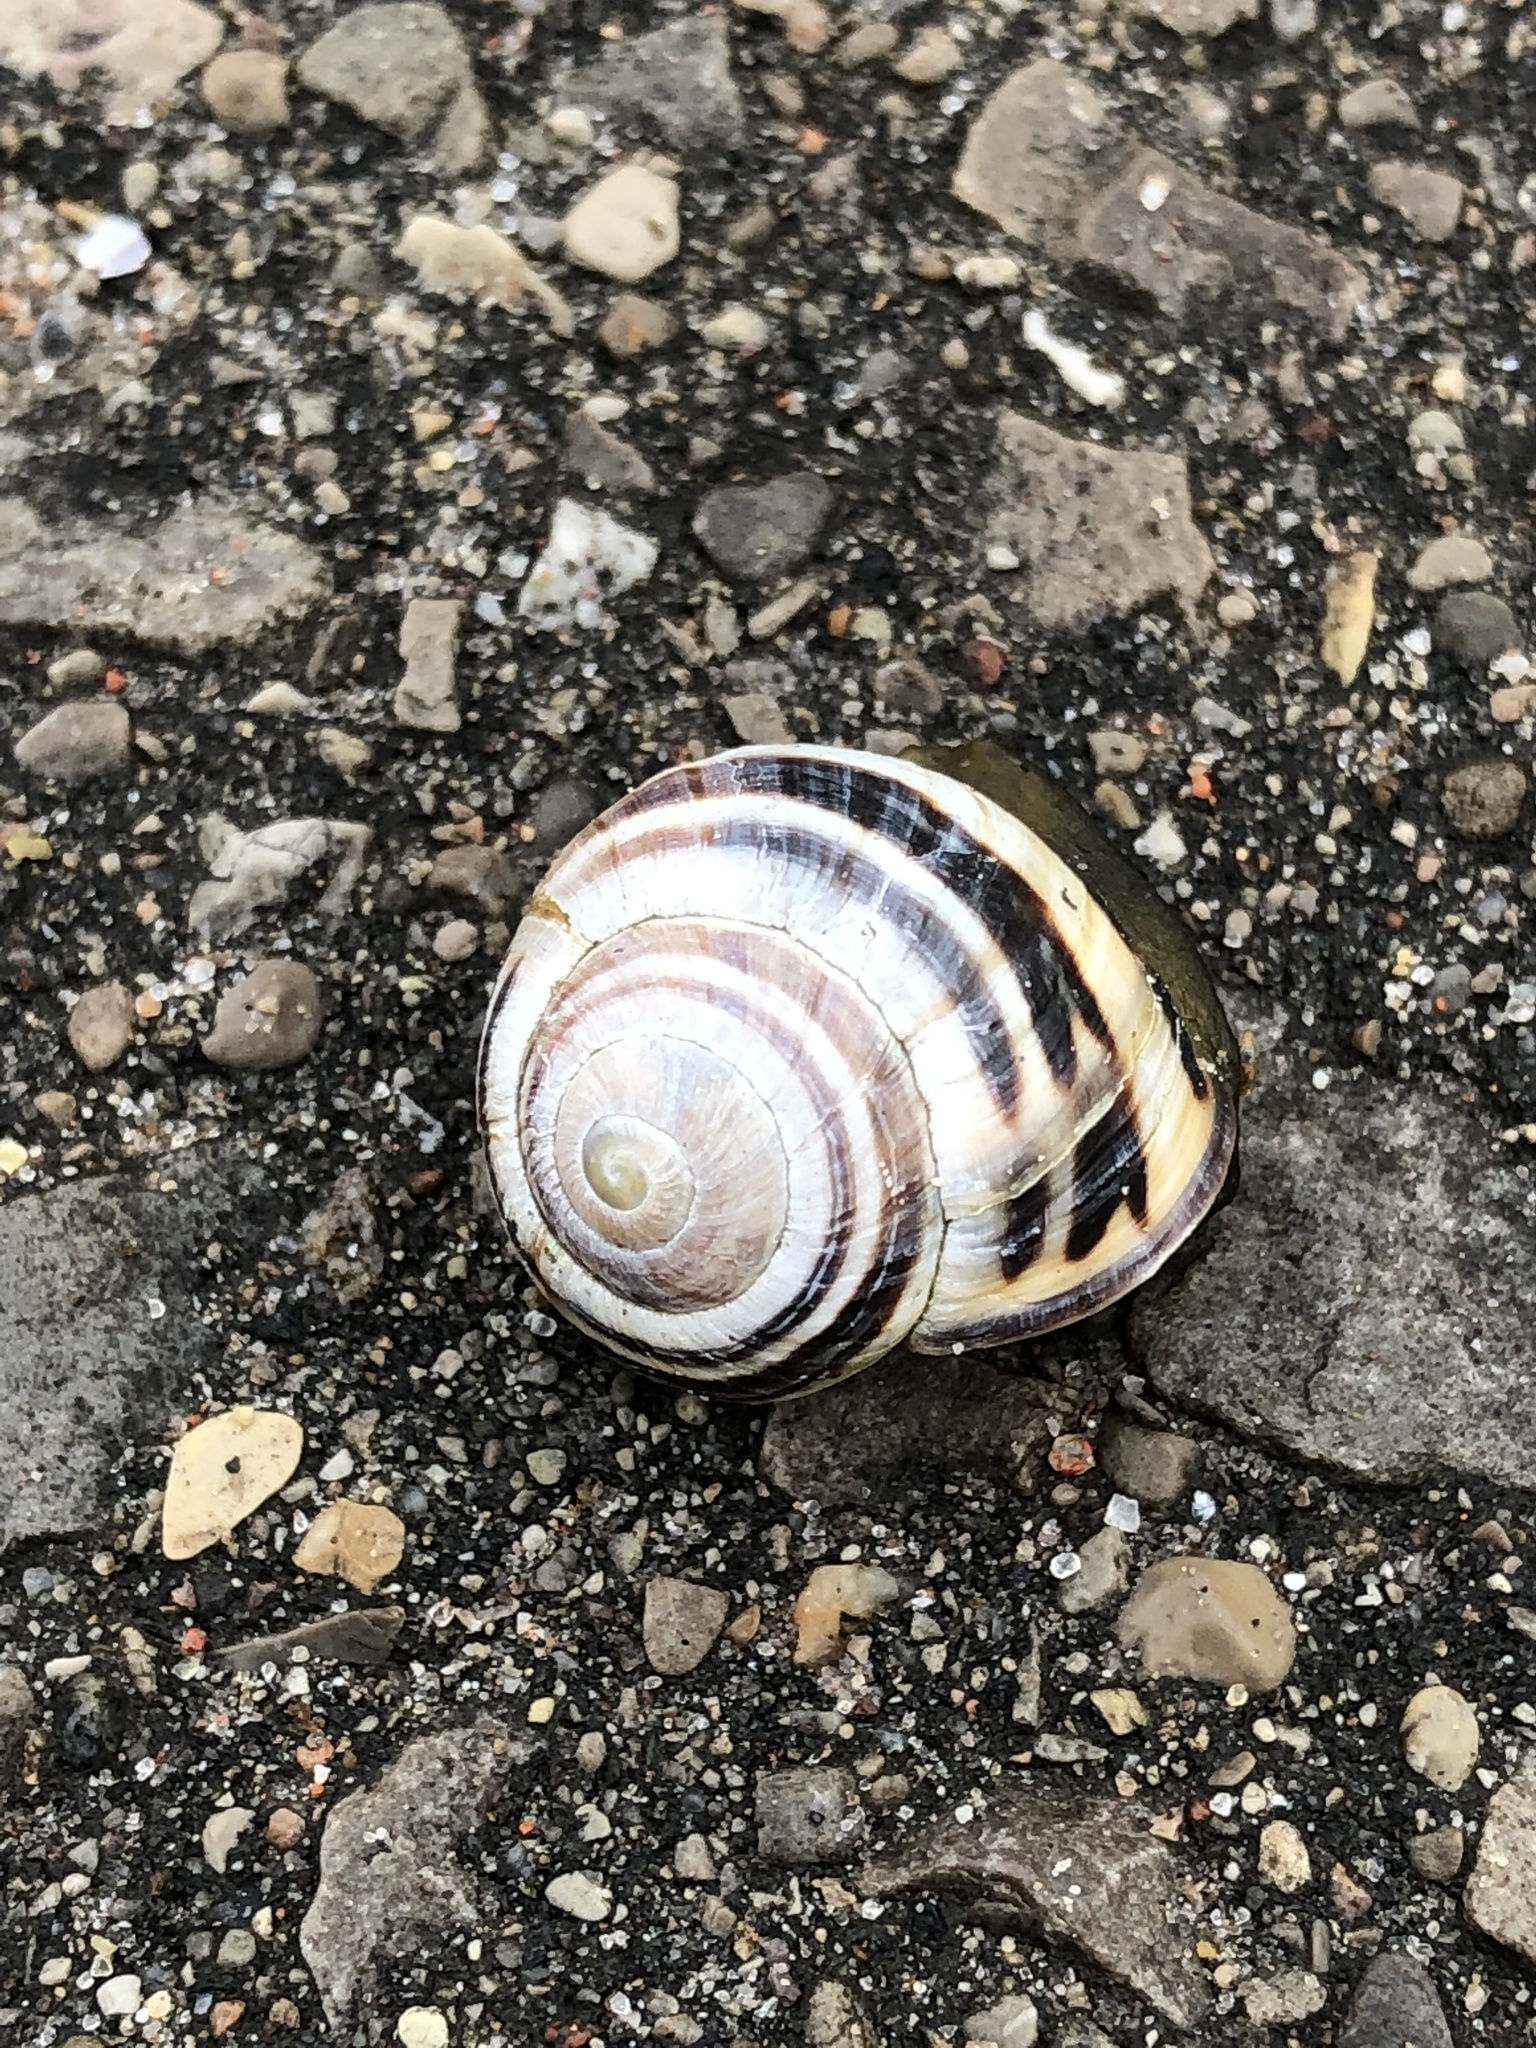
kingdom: Animalia
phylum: Mollusca
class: Gastropoda
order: Stylommatophora
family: Helicidae
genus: Cepaea
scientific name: Cepaea nemoralis
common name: Grovesnail
